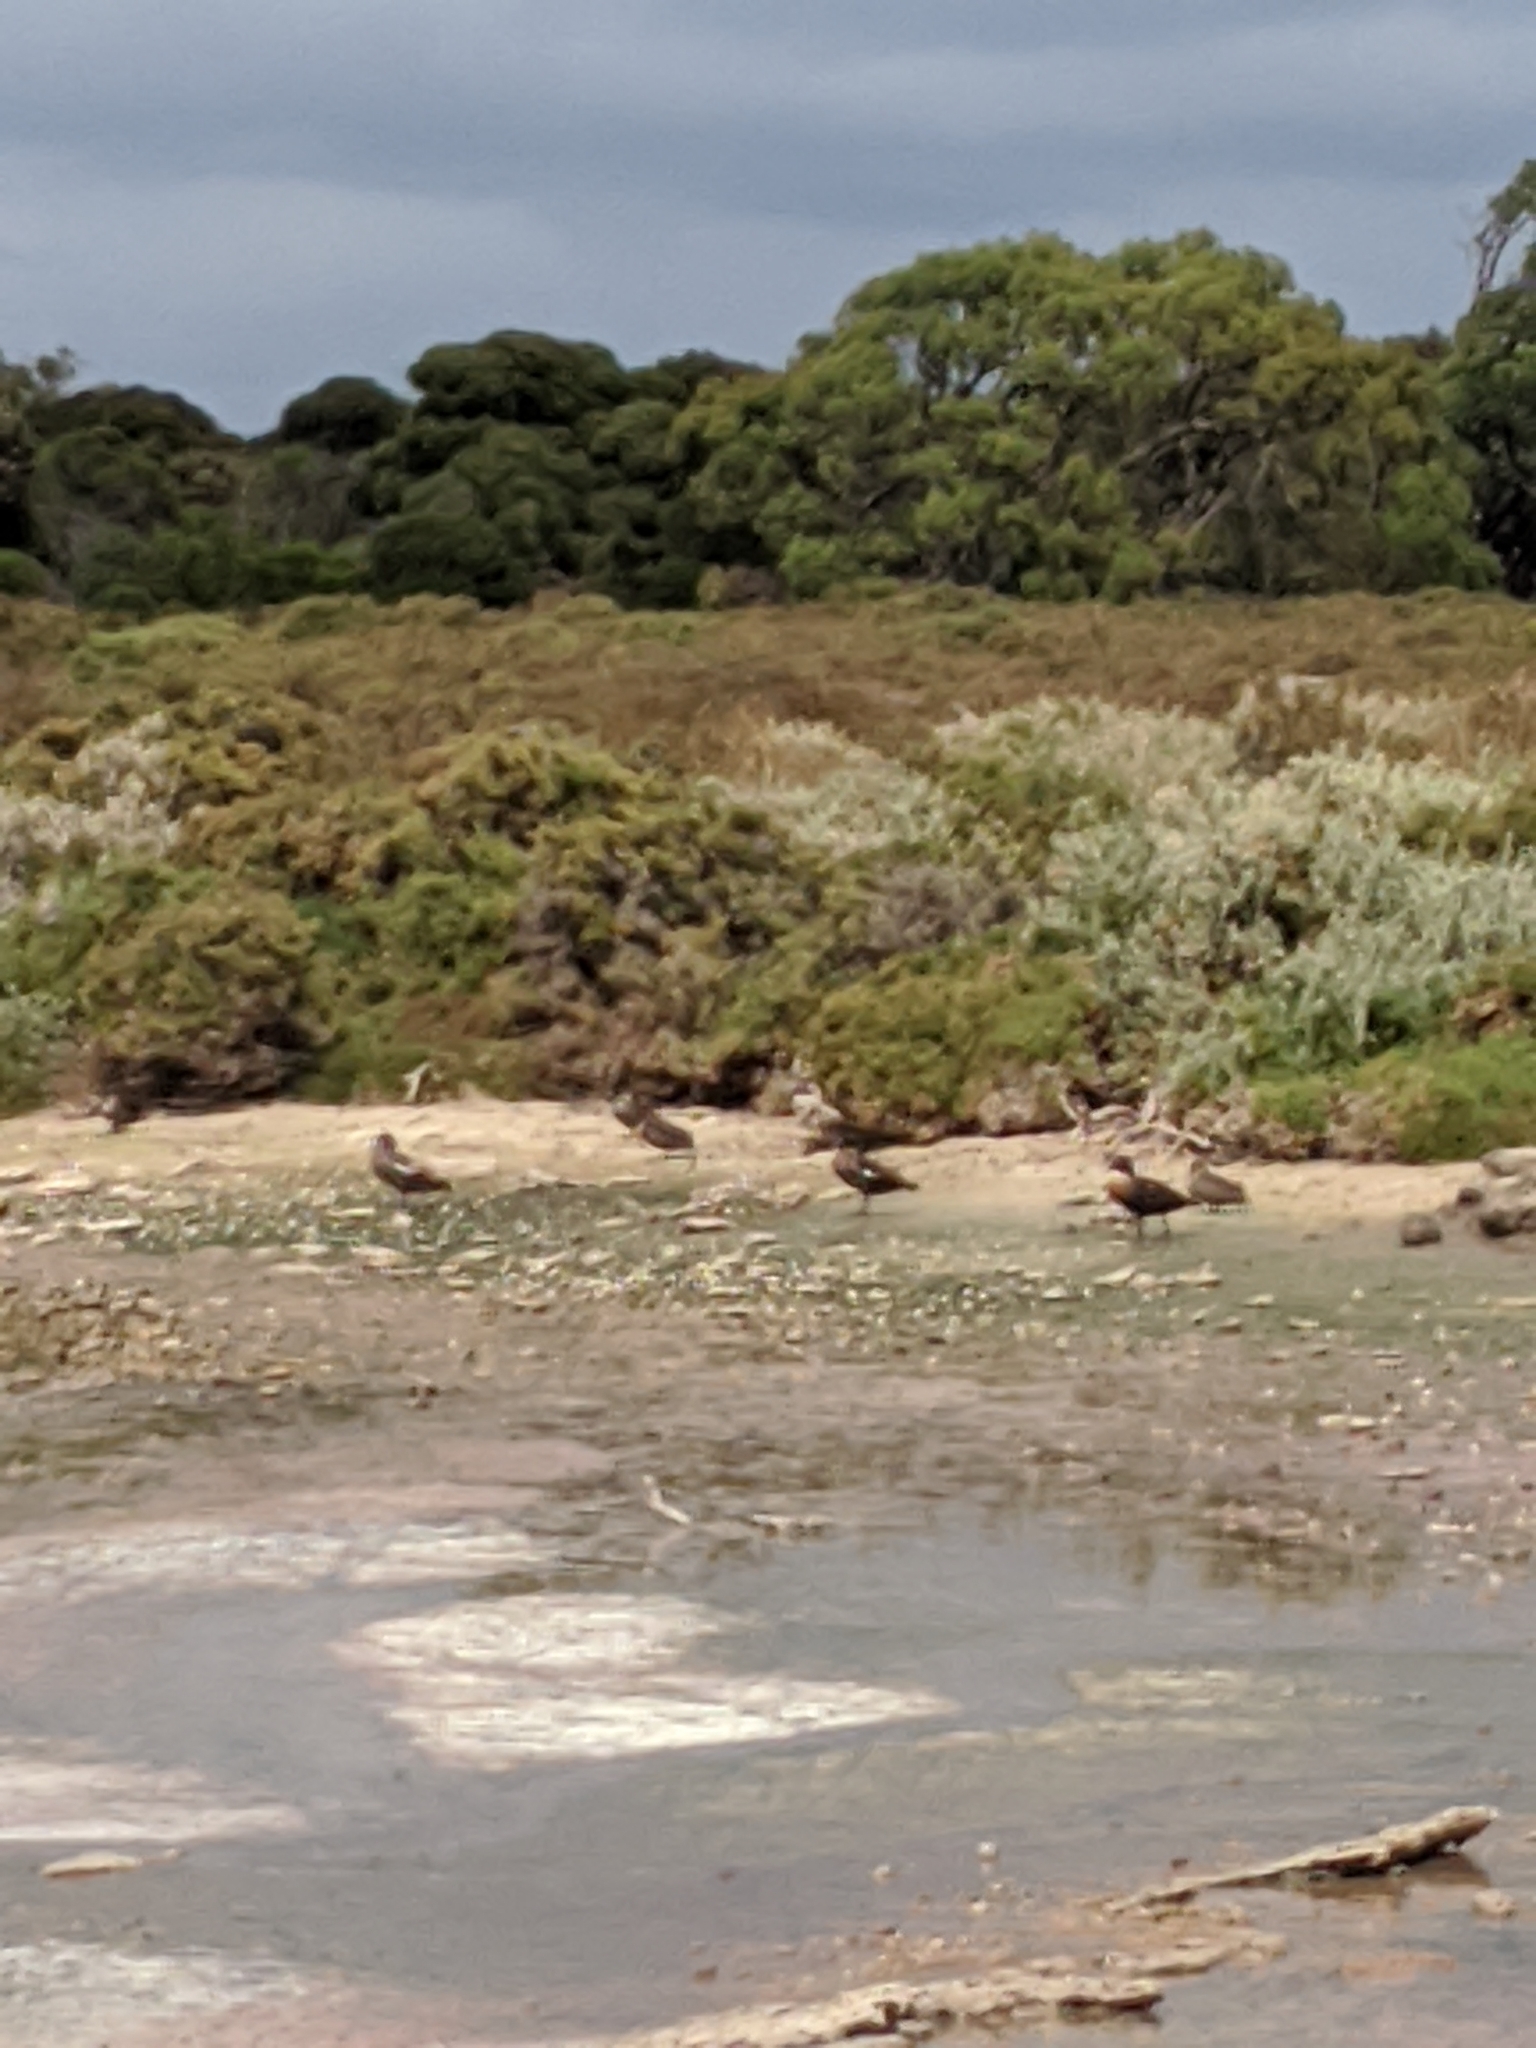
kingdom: Animalia
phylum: Chordata
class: Aves
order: Anseriformes
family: Anatidae
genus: Tadorna
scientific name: Tadorna tadornoides
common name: Australian shelduck
